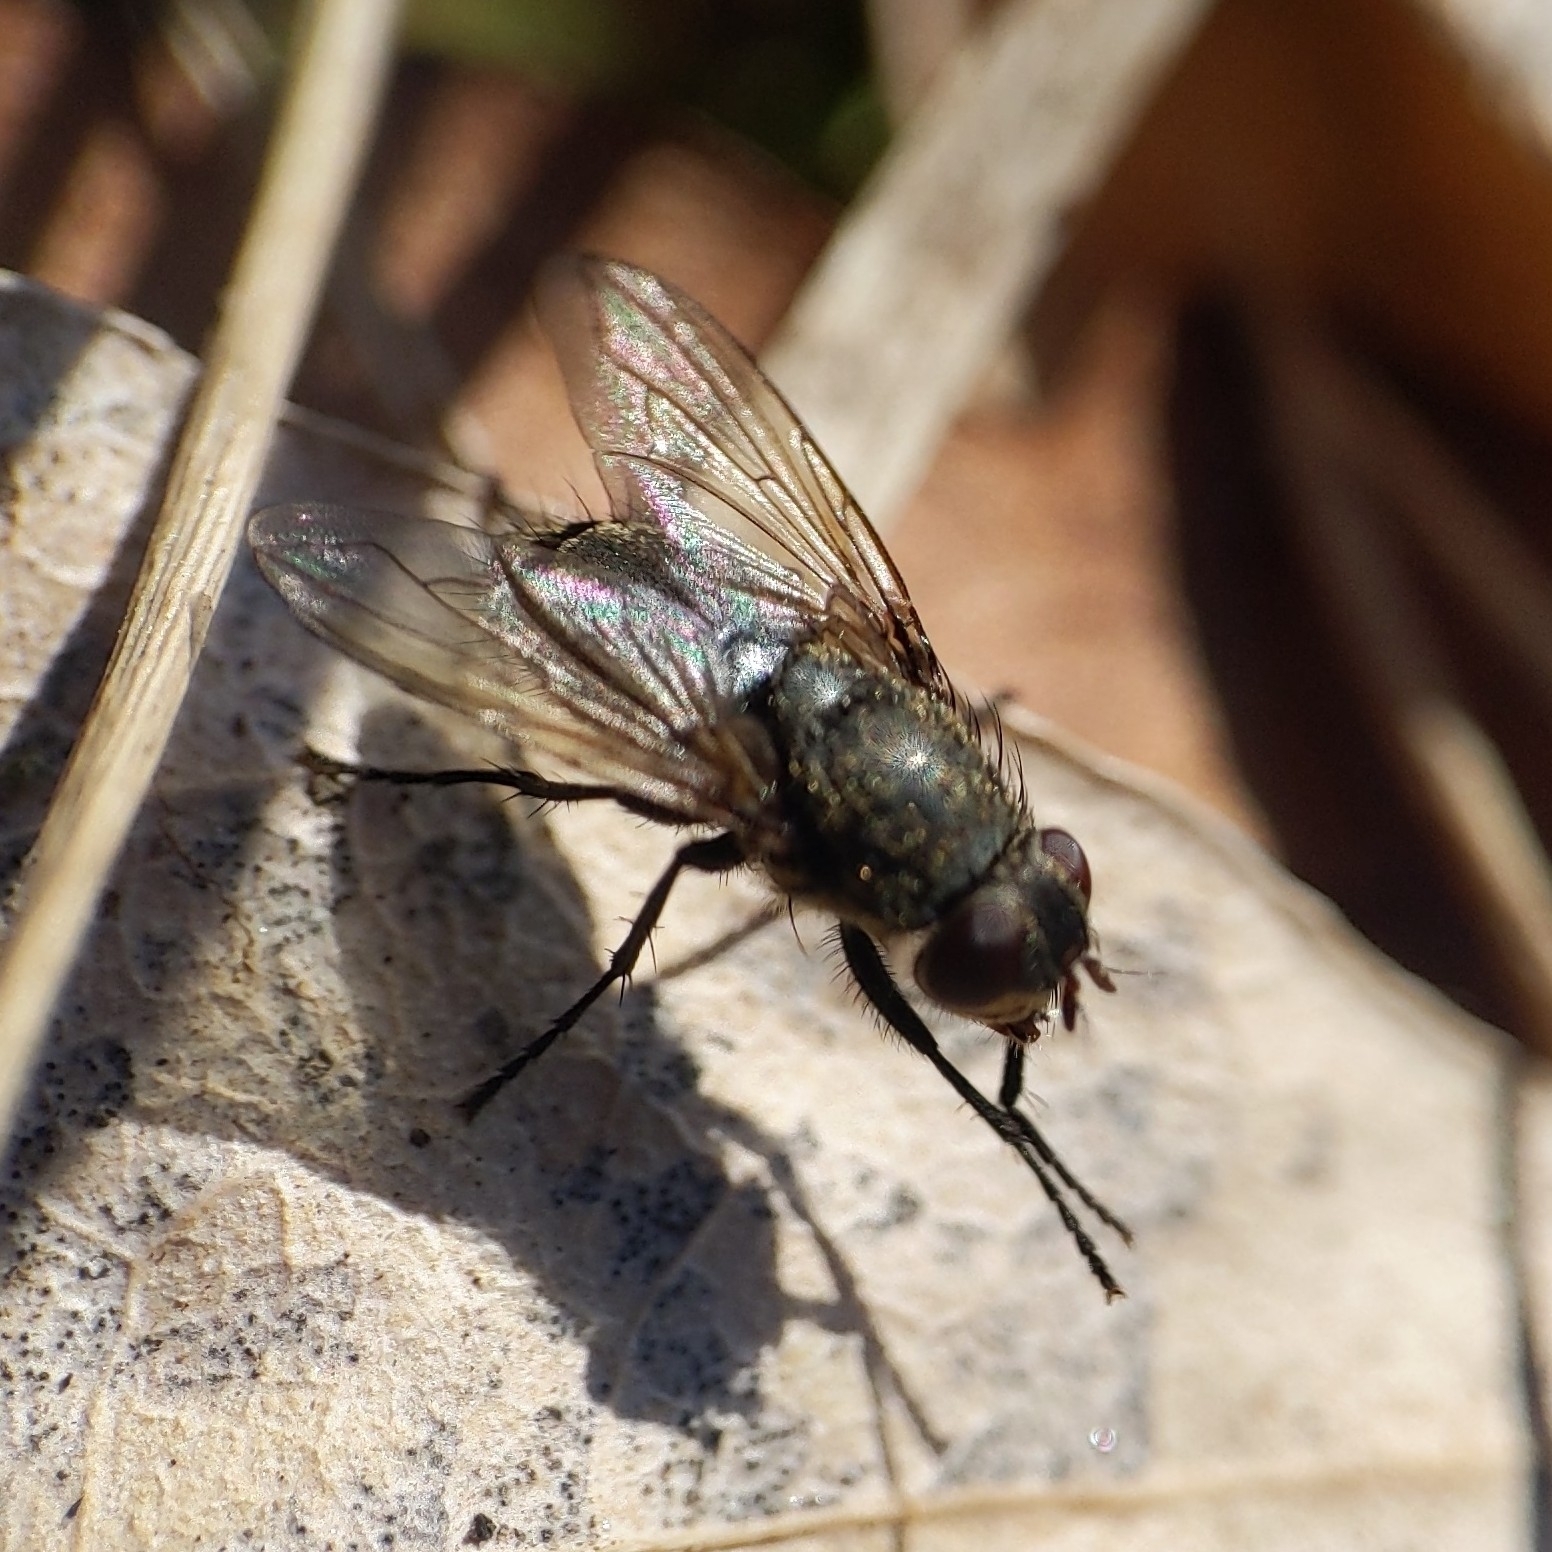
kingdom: Animalia
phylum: Arthropoda
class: Insecta
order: Diptera
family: Polleniidae
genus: Pollenia
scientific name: Pollenia
